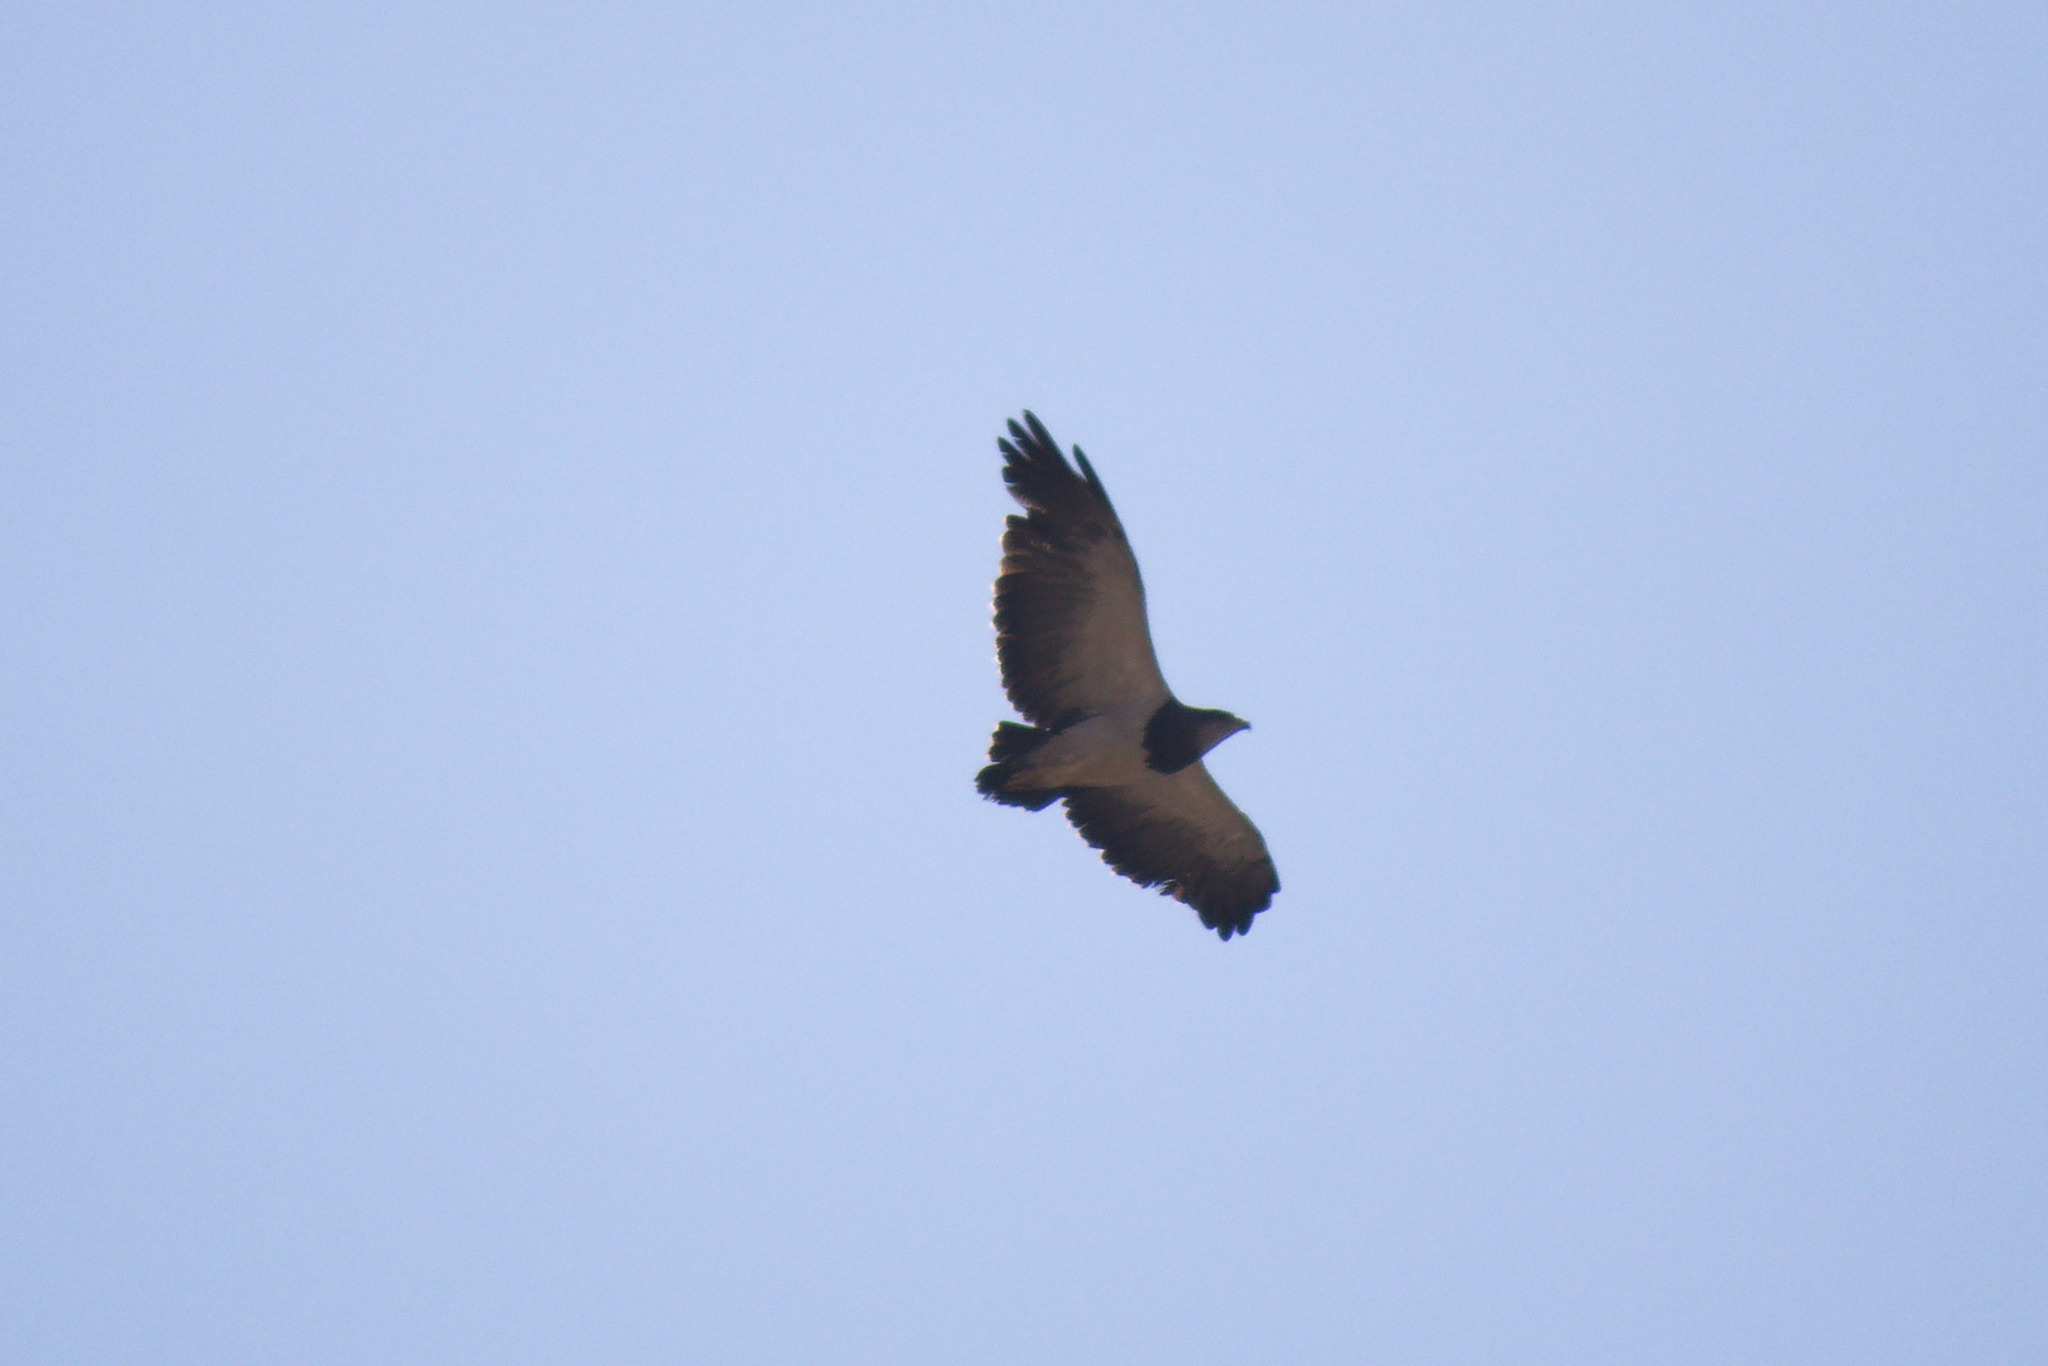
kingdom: Animalia
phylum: Chordata
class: Aves
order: Accipitriformes
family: Accipitridae
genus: Geranoaetus
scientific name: Geranoaetus melanoleucus
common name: Black-chested buzzard-eagle
